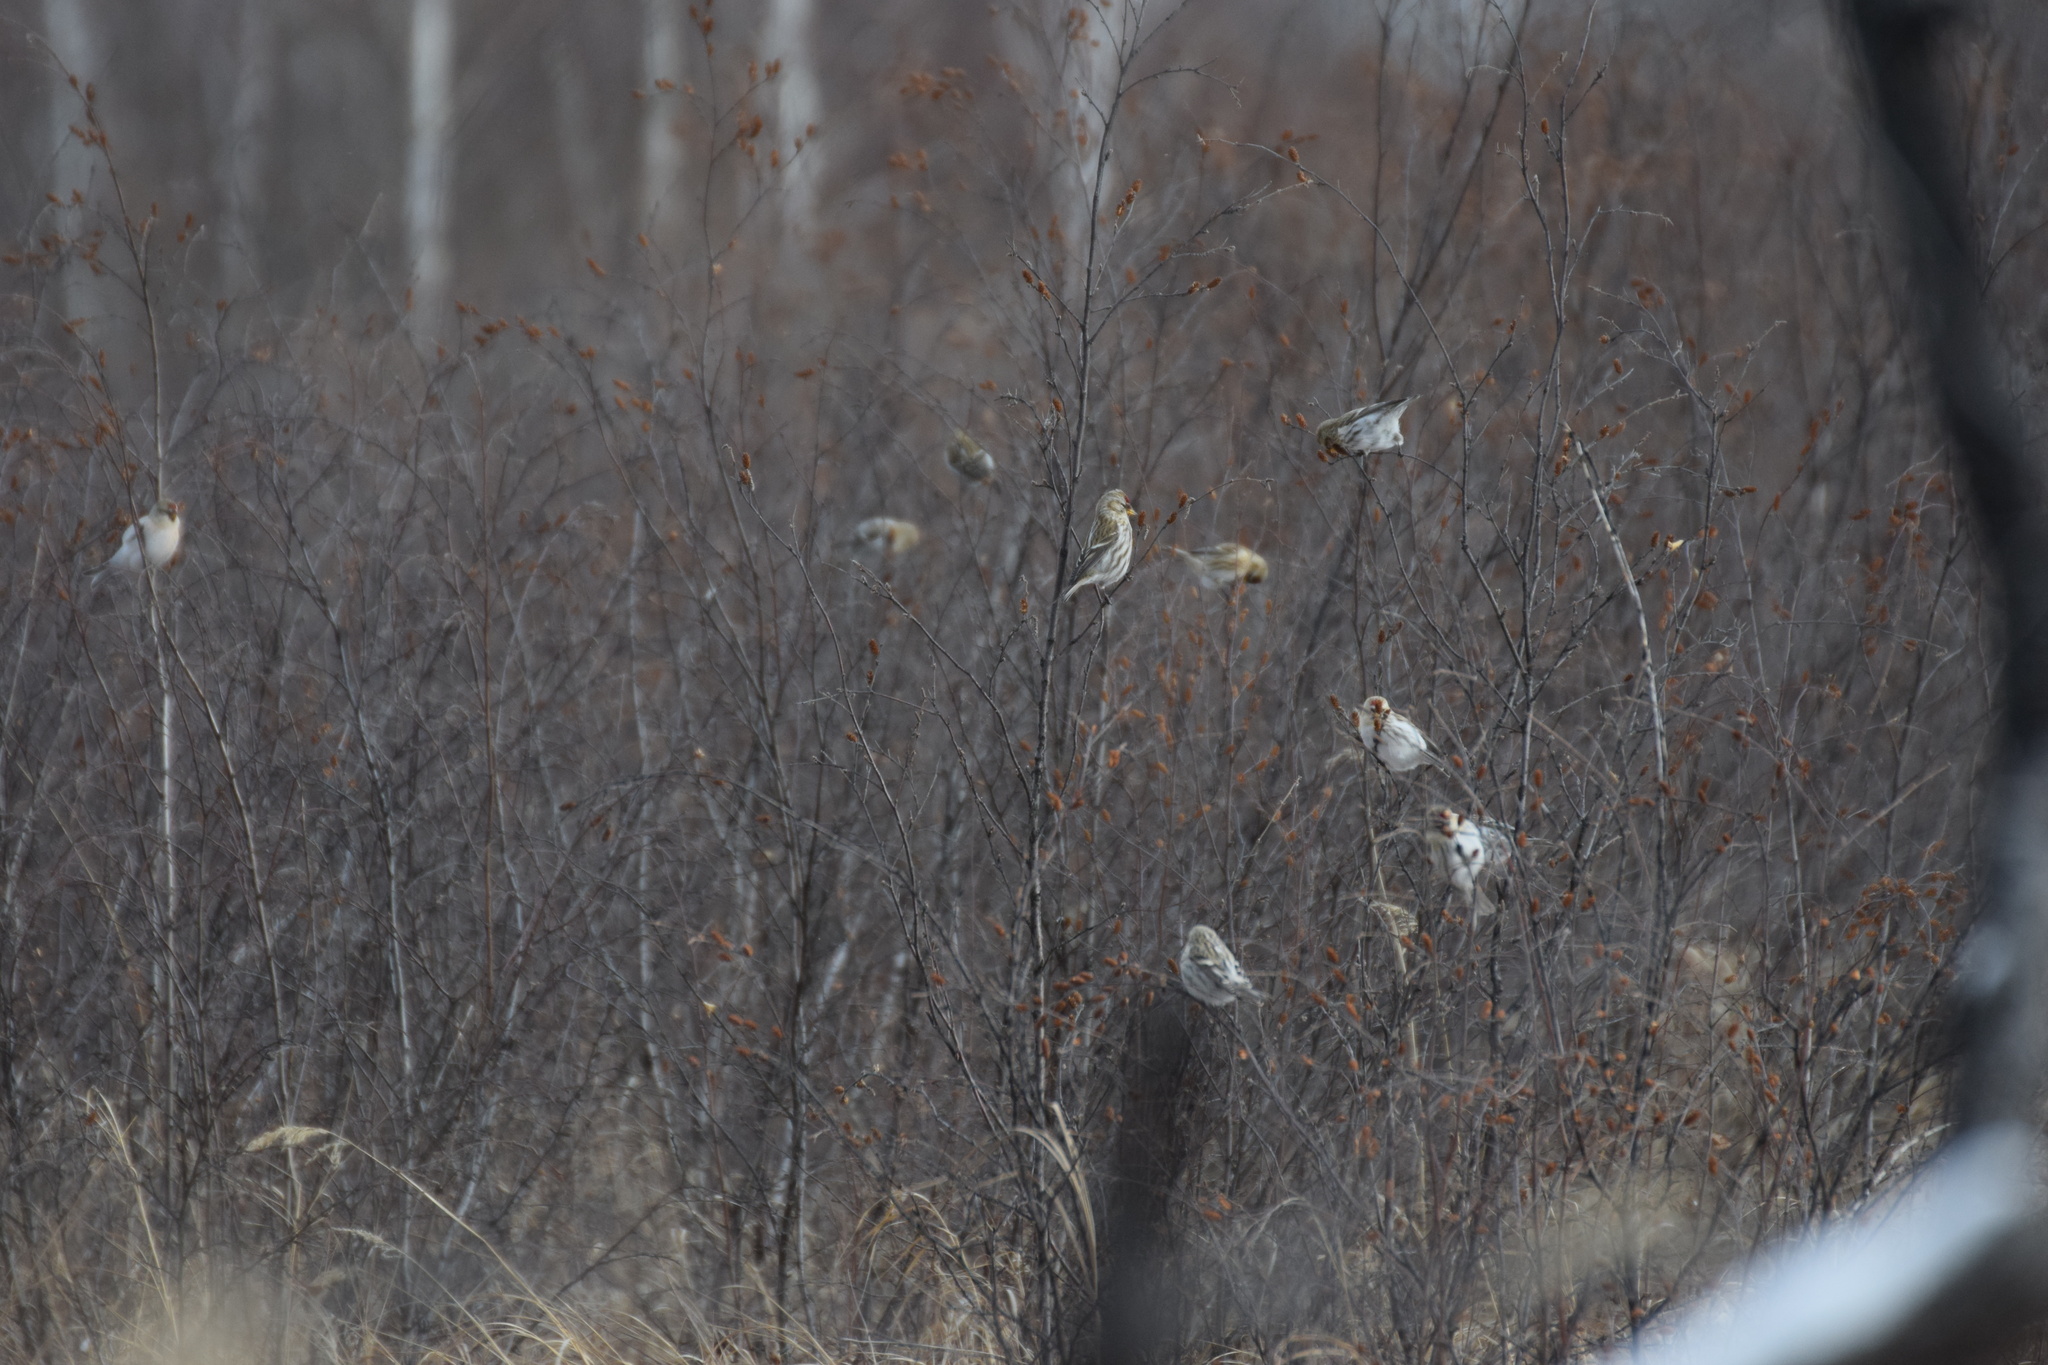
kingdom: Animalia
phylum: Chordata
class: Aves
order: Passeriformes
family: Fringillidae
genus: Acanthis
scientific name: Acanthis flammea
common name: Common redpoll
